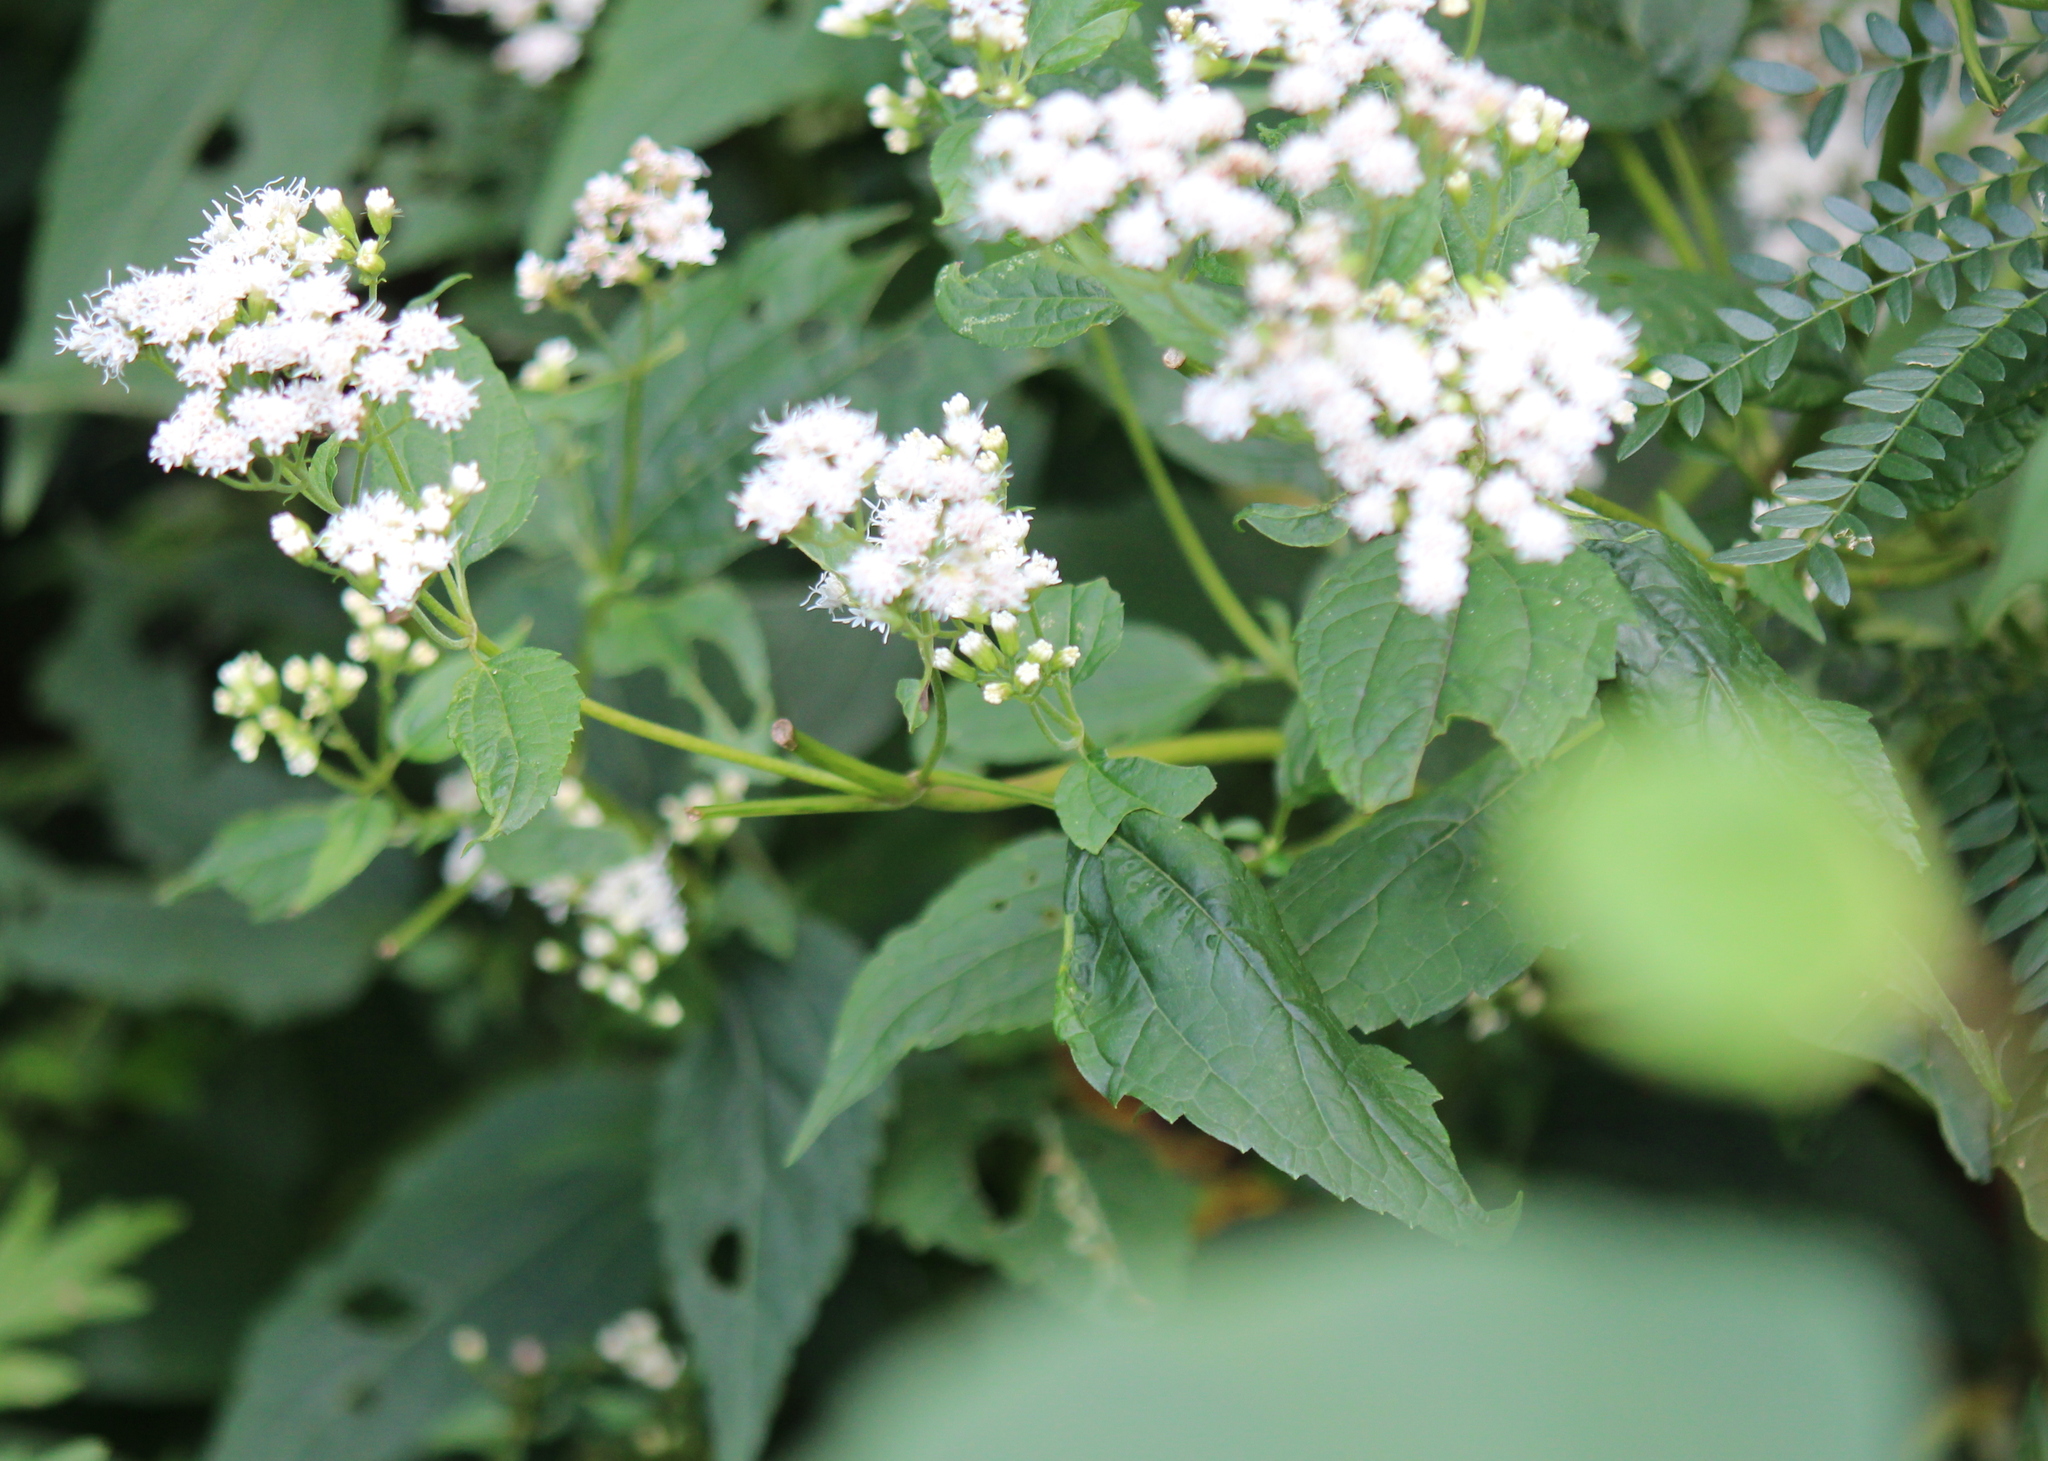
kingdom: Plantae
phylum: Tracheophyta
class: Magnoliopsida
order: Asterales
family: Asteraceae
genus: Ageratina
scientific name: Ageratina altissima
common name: White snakeroot
